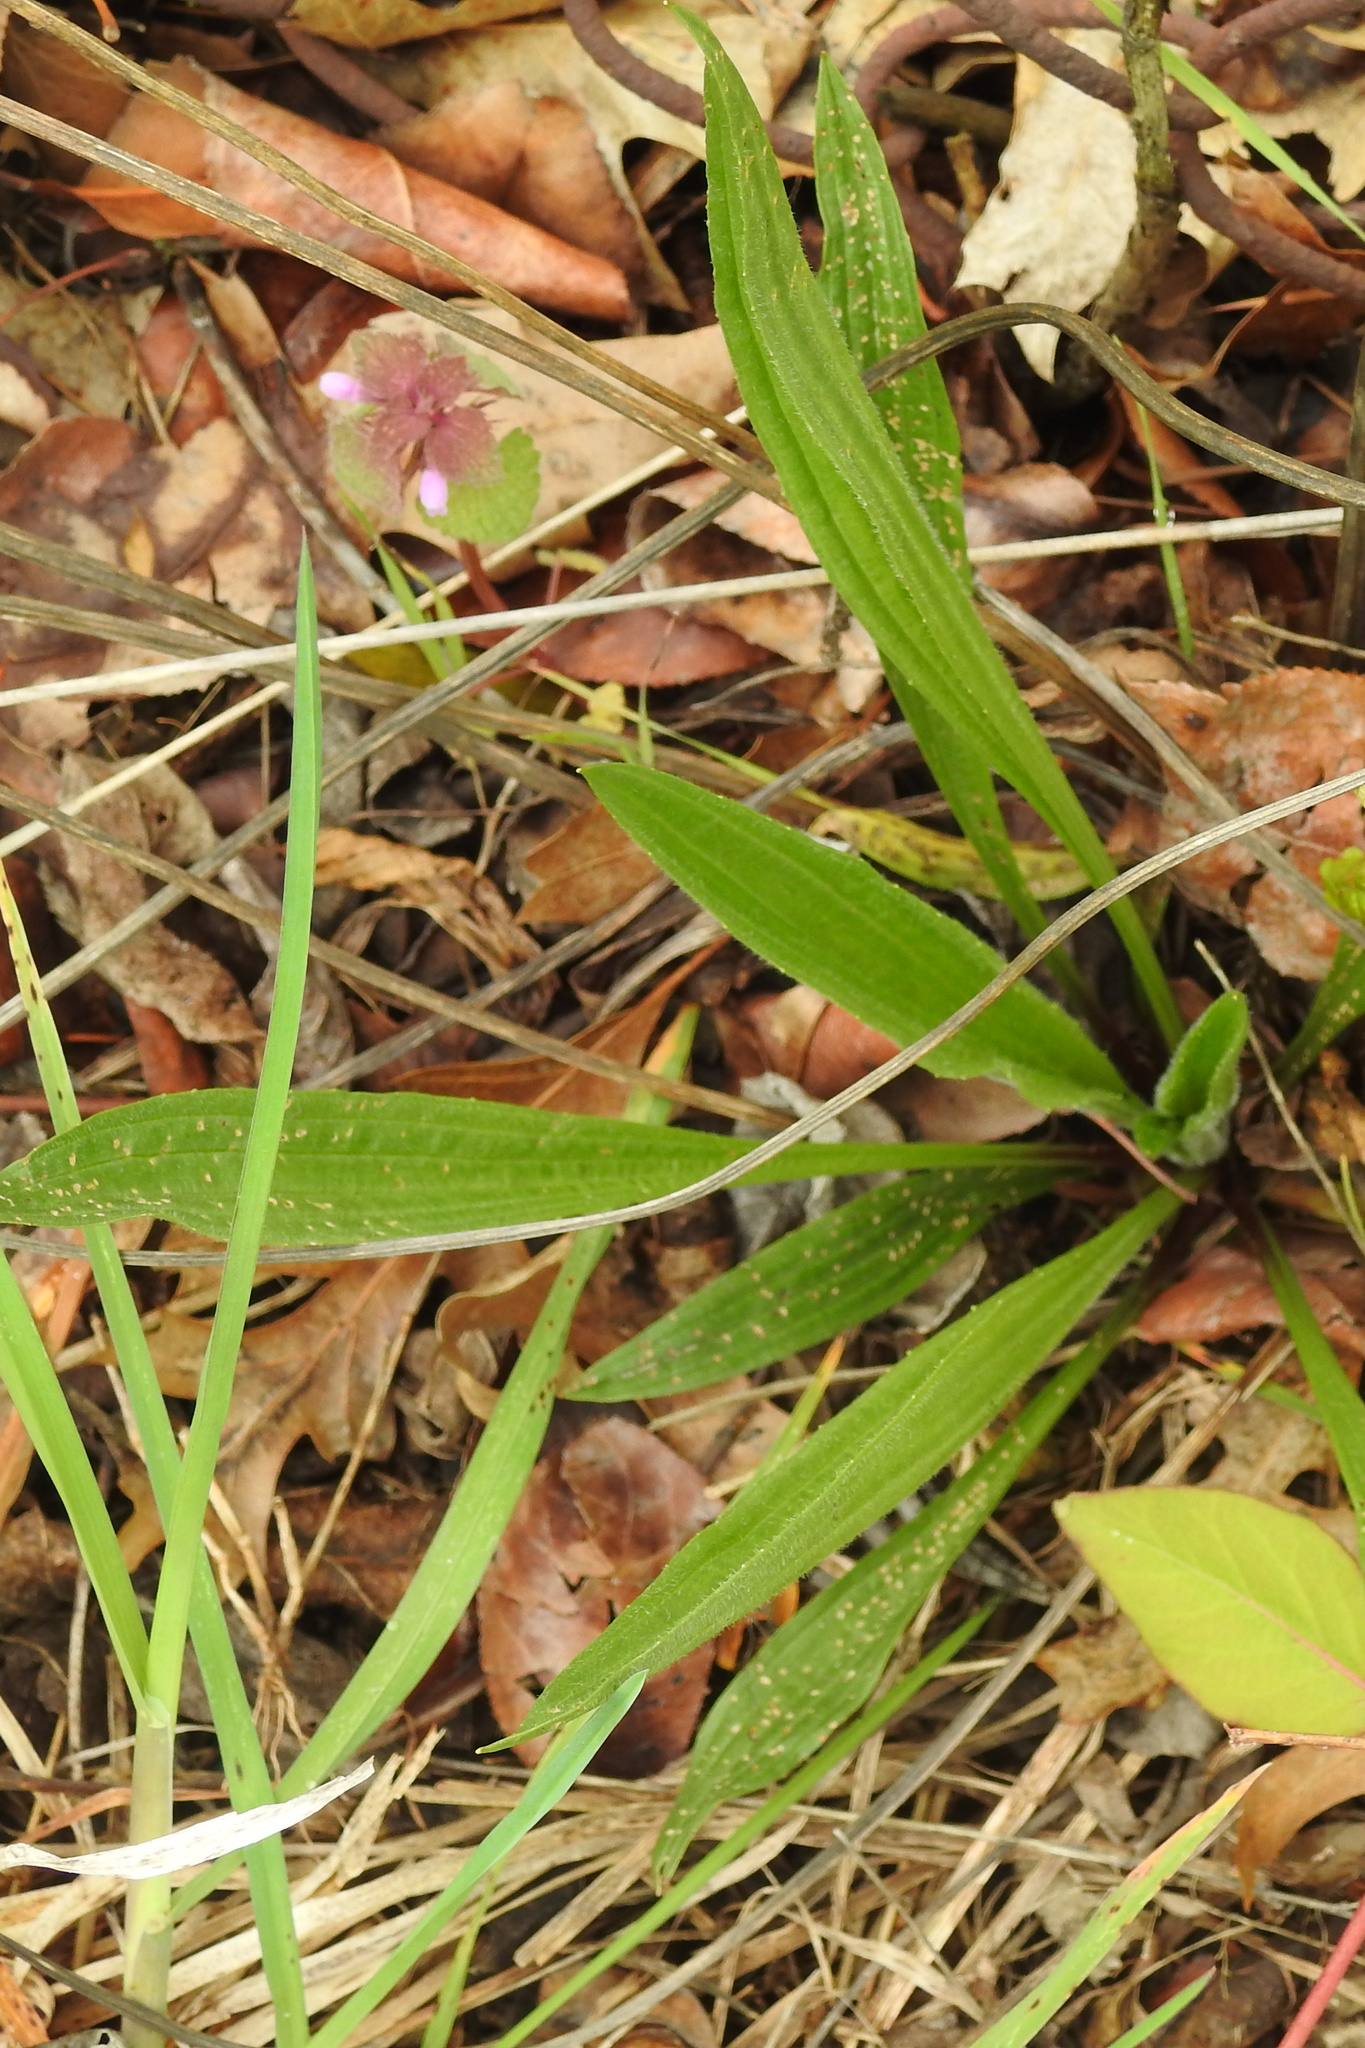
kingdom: Plantae
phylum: Tracheophyta
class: Magnoliopsida
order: Lamiales
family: Plantaginaceae
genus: Plantago
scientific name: Plantago lanceolata
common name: Ribwort plantain
